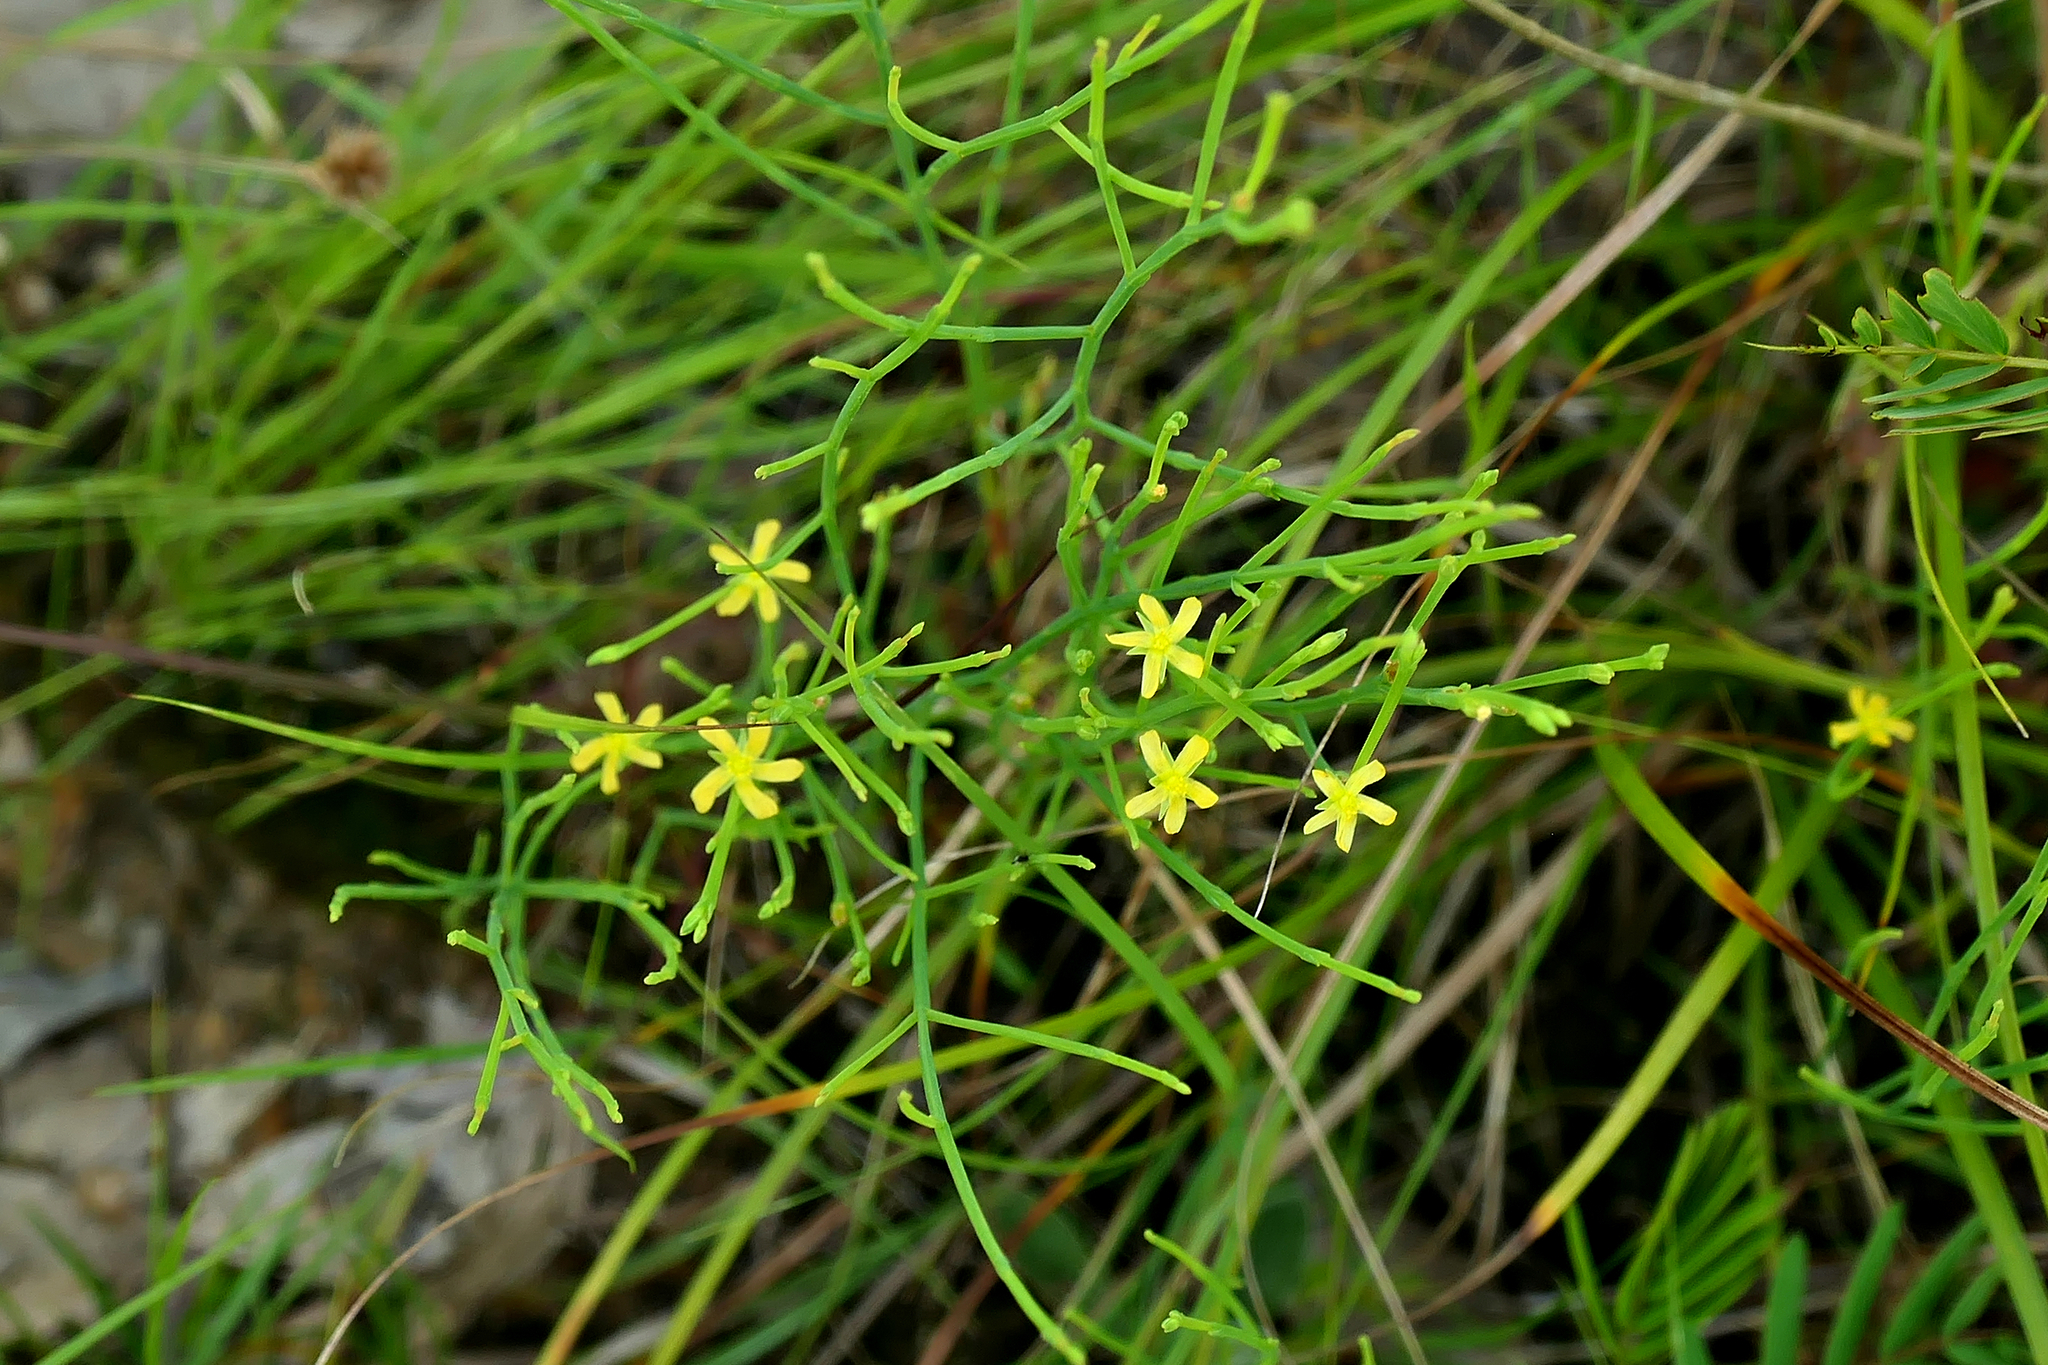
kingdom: Plantae
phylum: Tracheophyta
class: Magnoliopsida
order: Malpighiales
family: Hypericaceae
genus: Hypericum
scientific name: Hypericum gentianoides
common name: Gentian-leaved st. john's-wort
